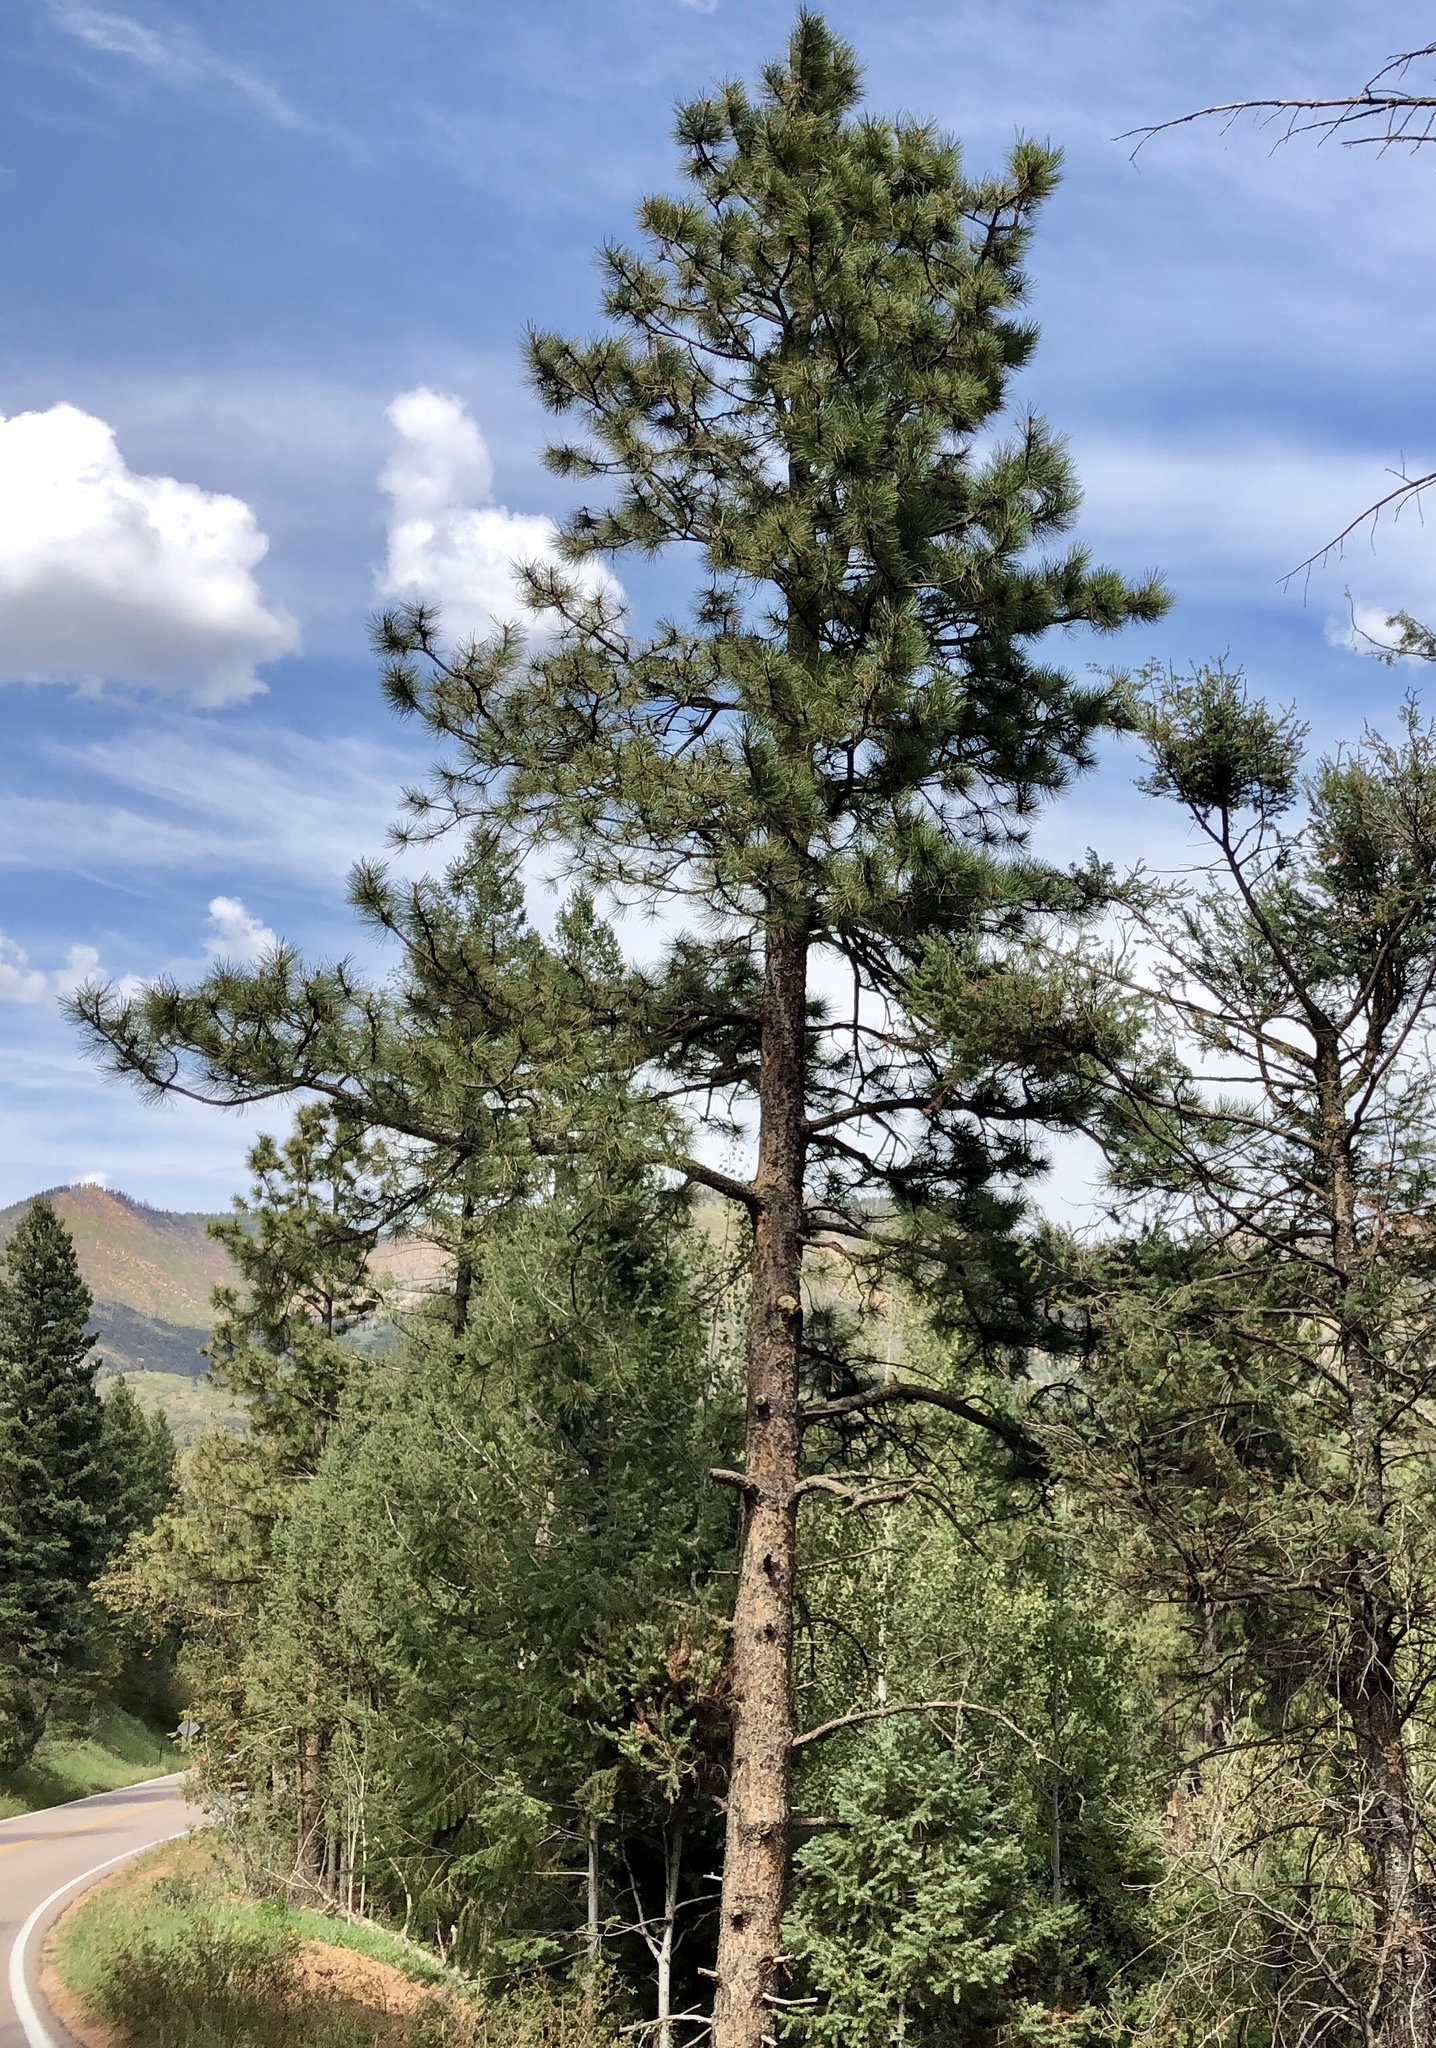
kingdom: Plantae
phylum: Tracheophyta
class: Pinopsida
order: Pinales
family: Pinaceae
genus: Pinus
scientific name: Pinus ponderosa
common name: Western yellow-pine
